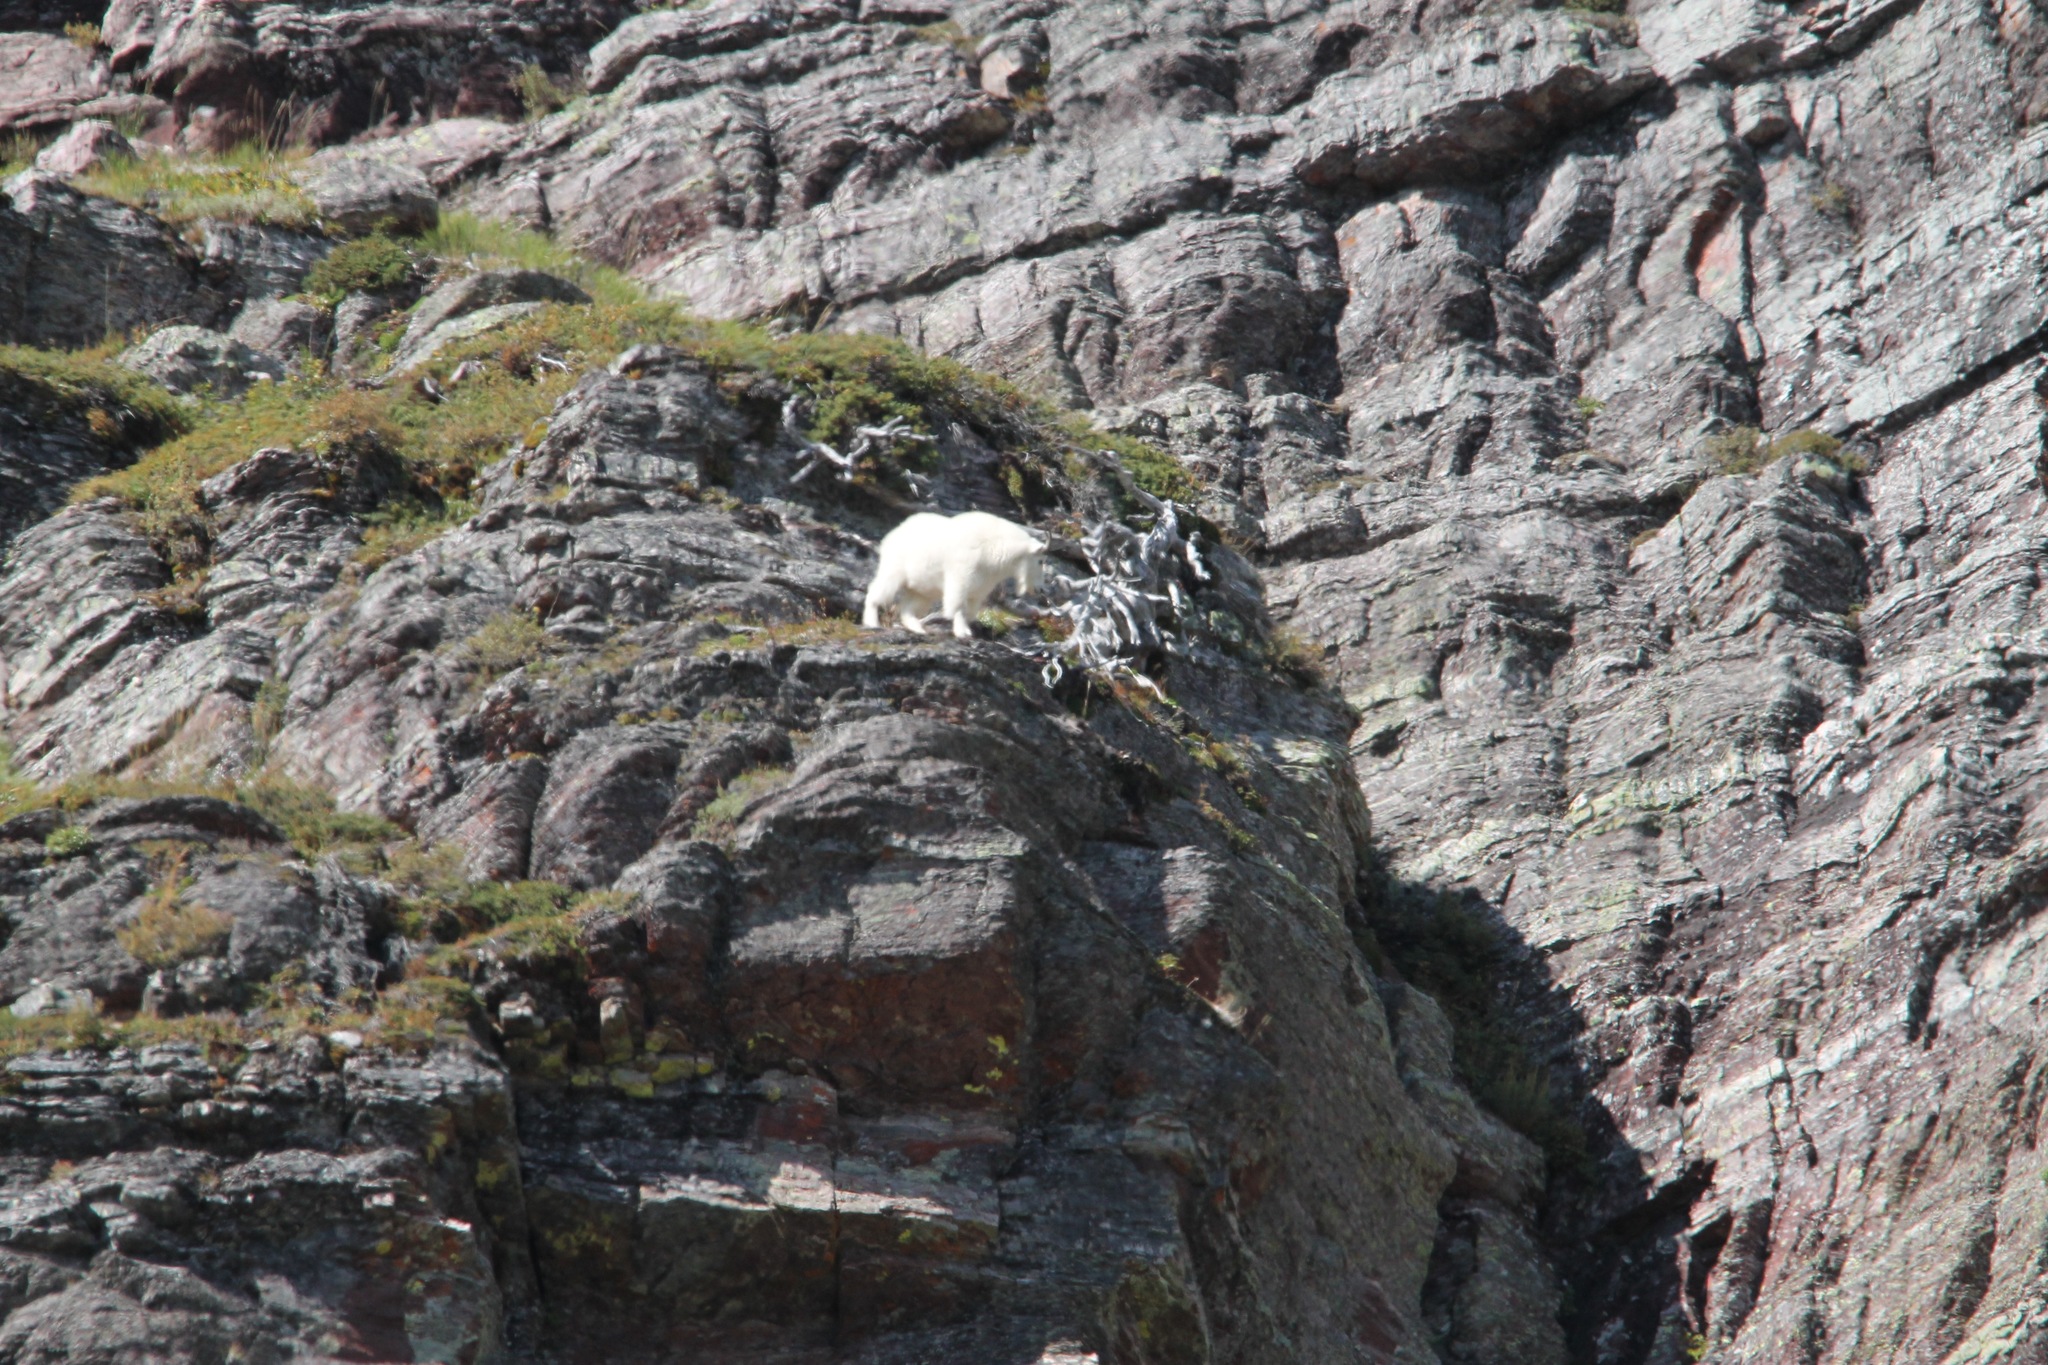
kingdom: Animalia
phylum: Chordata
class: Mammalia
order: Artiodactyla
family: Bovidae
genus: Oreamnos
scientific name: Oreamnos americanus
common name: Mountain goat
